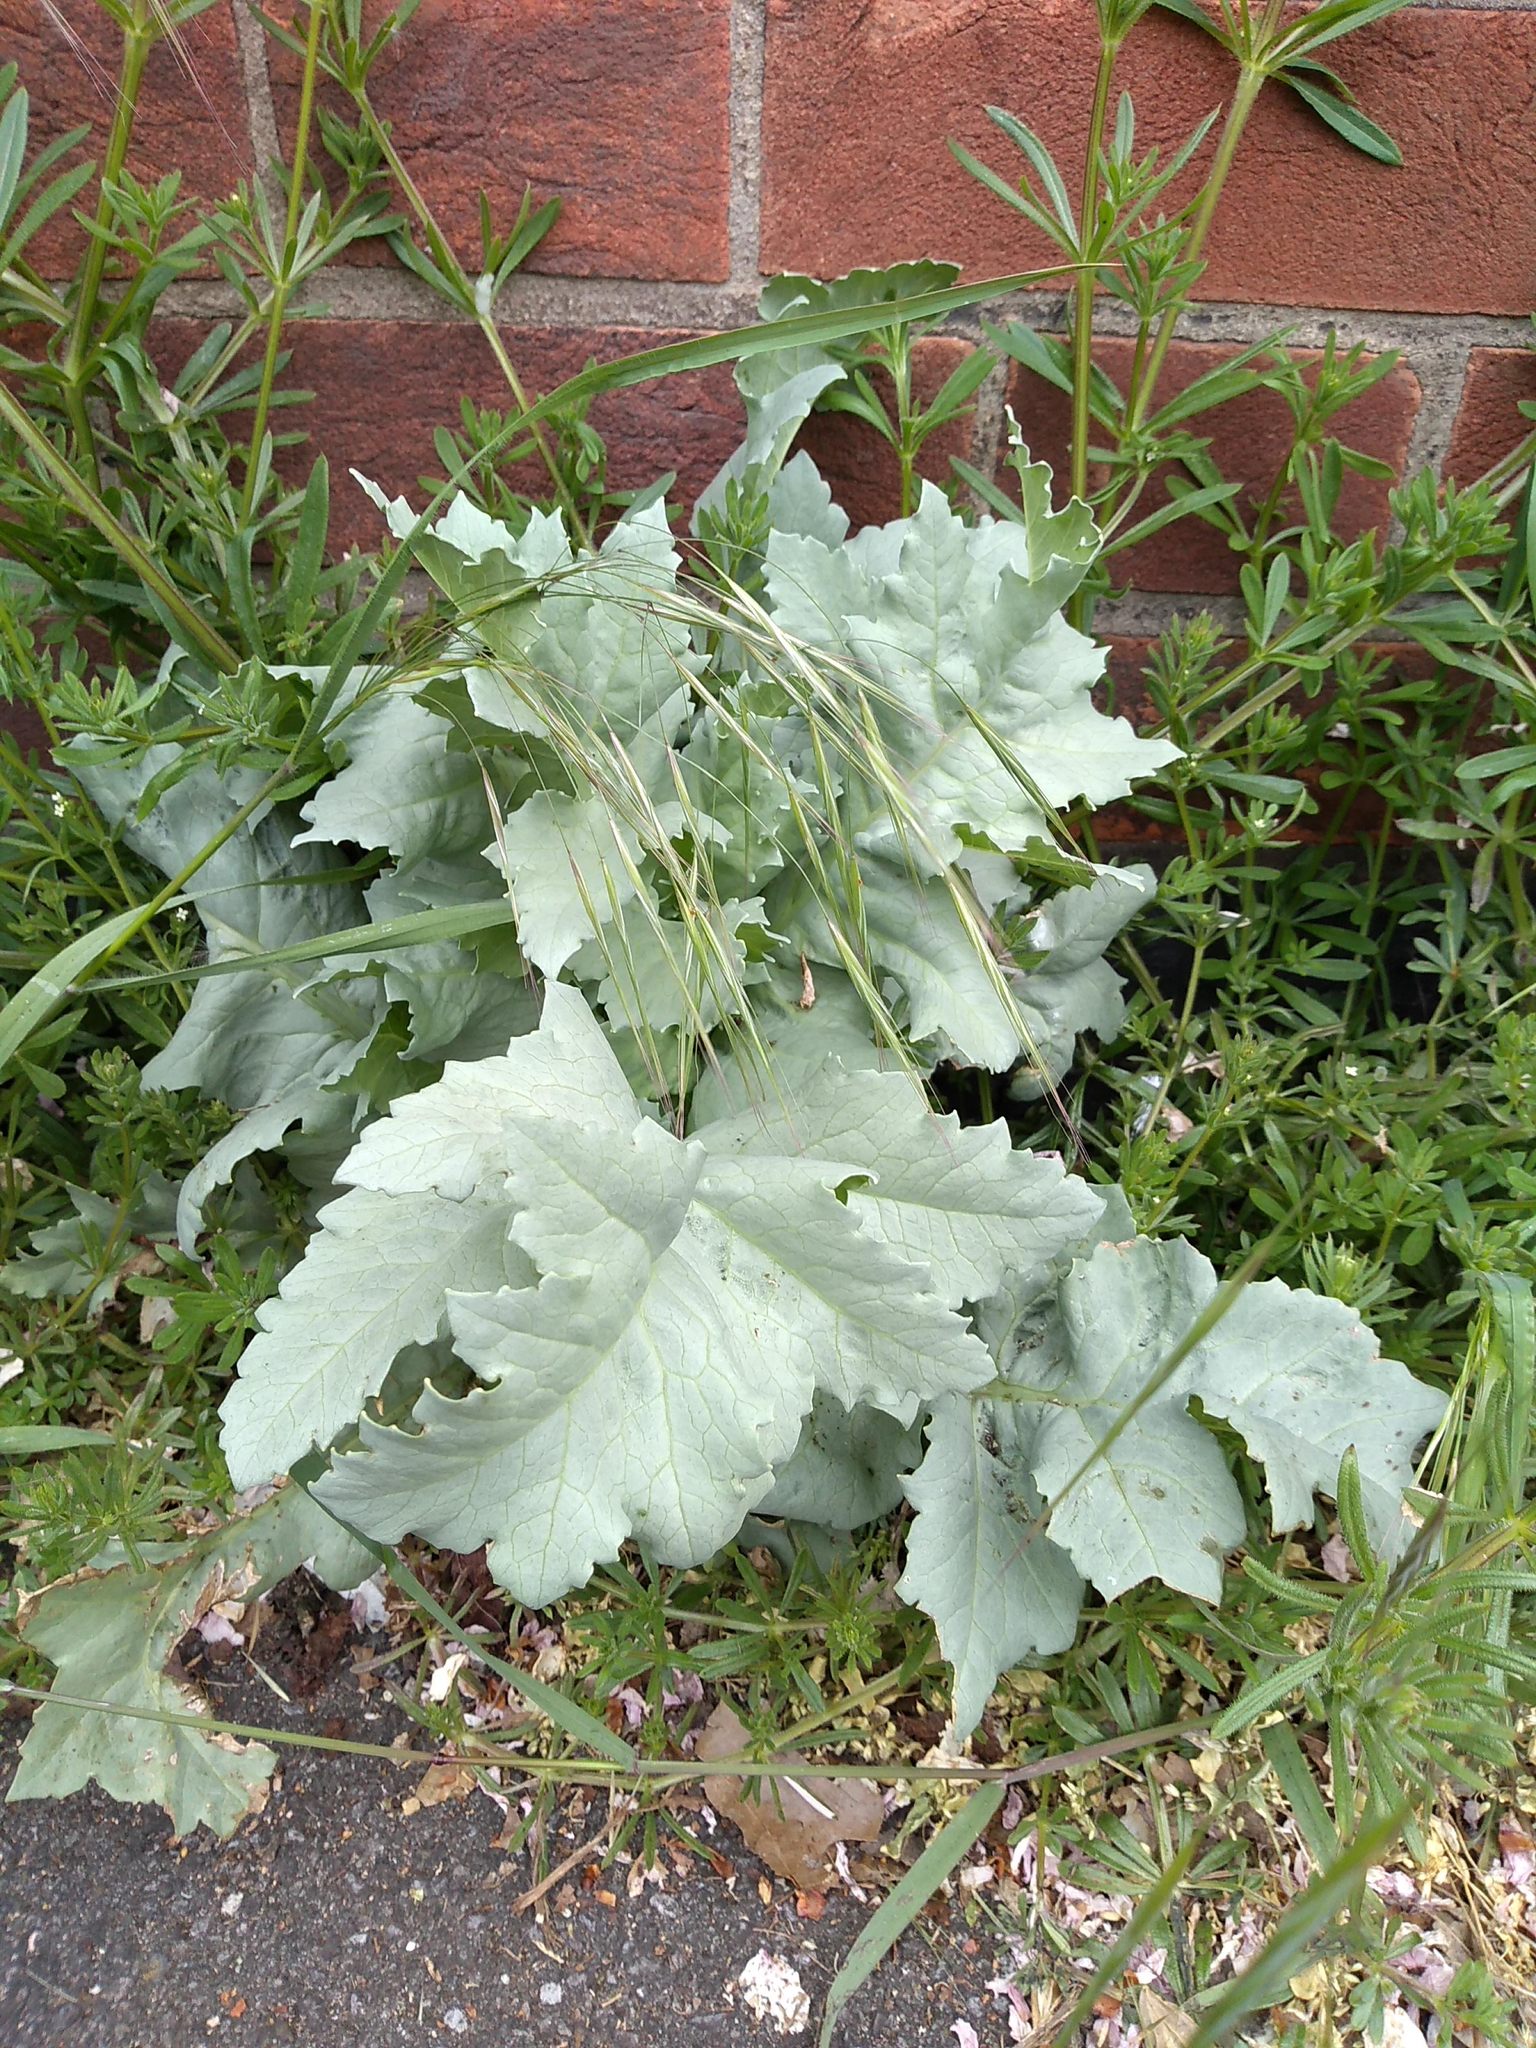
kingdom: Plantae
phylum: Tracheophyta
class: Magnoliopsida
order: Ranunculales
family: Papaveraceae
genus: Papaver
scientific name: Papaver somniferum
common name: Opium poppy
